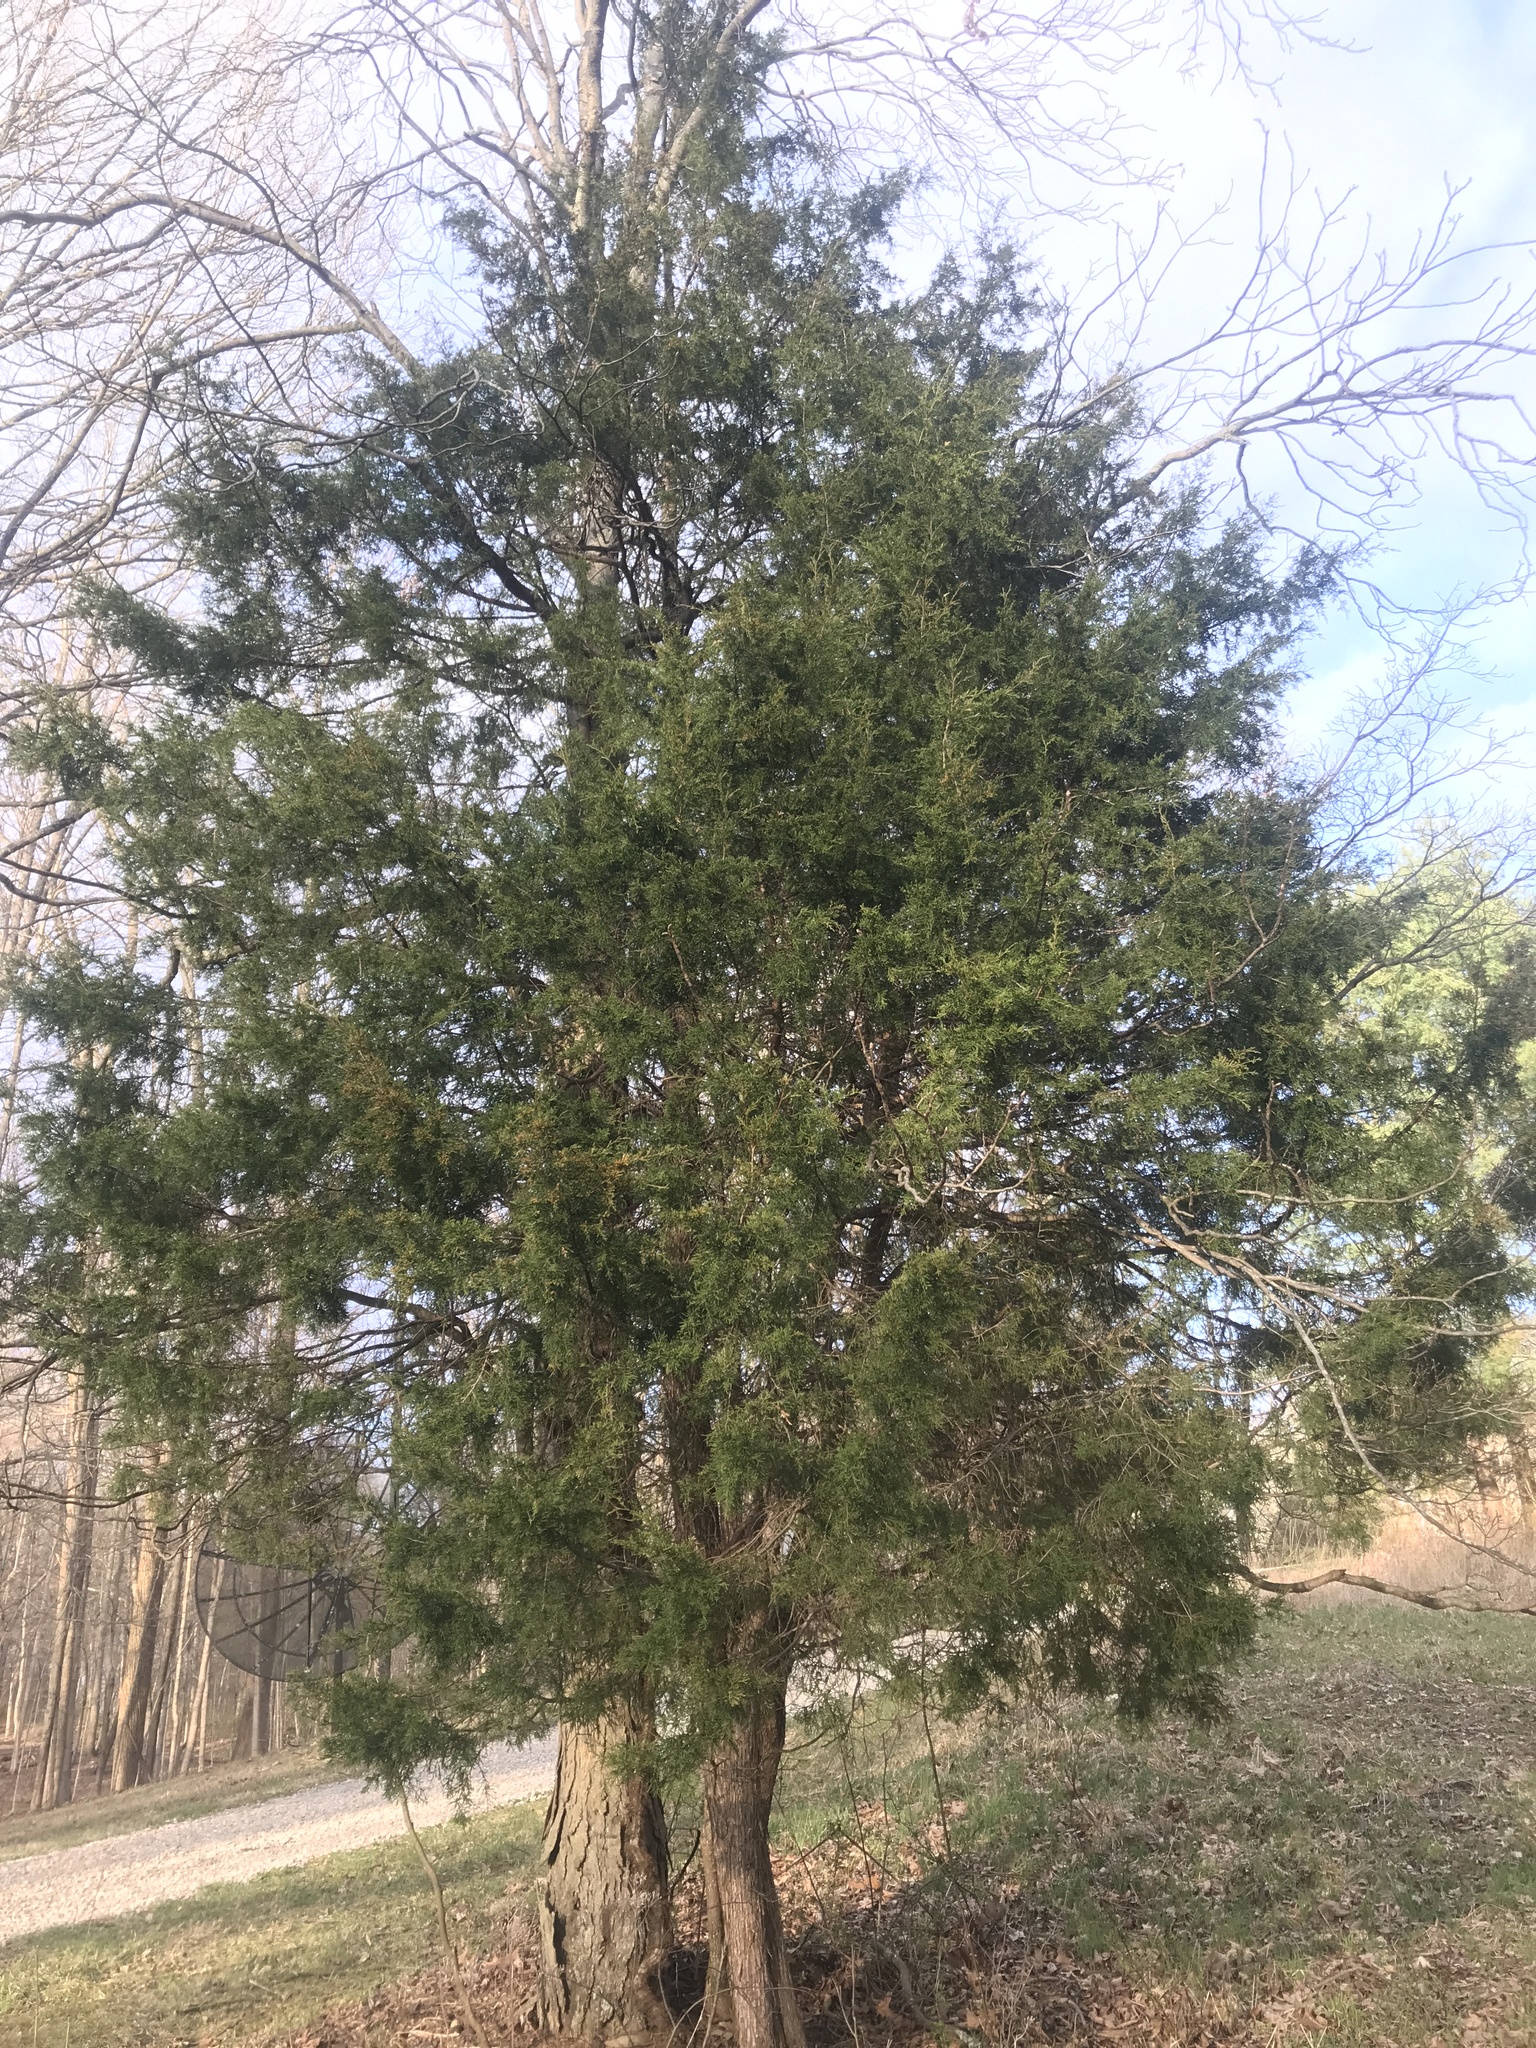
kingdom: Plantae
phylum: Tracheophyta
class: Pinopsida
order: Pinales
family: Cupressaceae
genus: Juniperus
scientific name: Juniperus virginiana
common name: Red juniper
